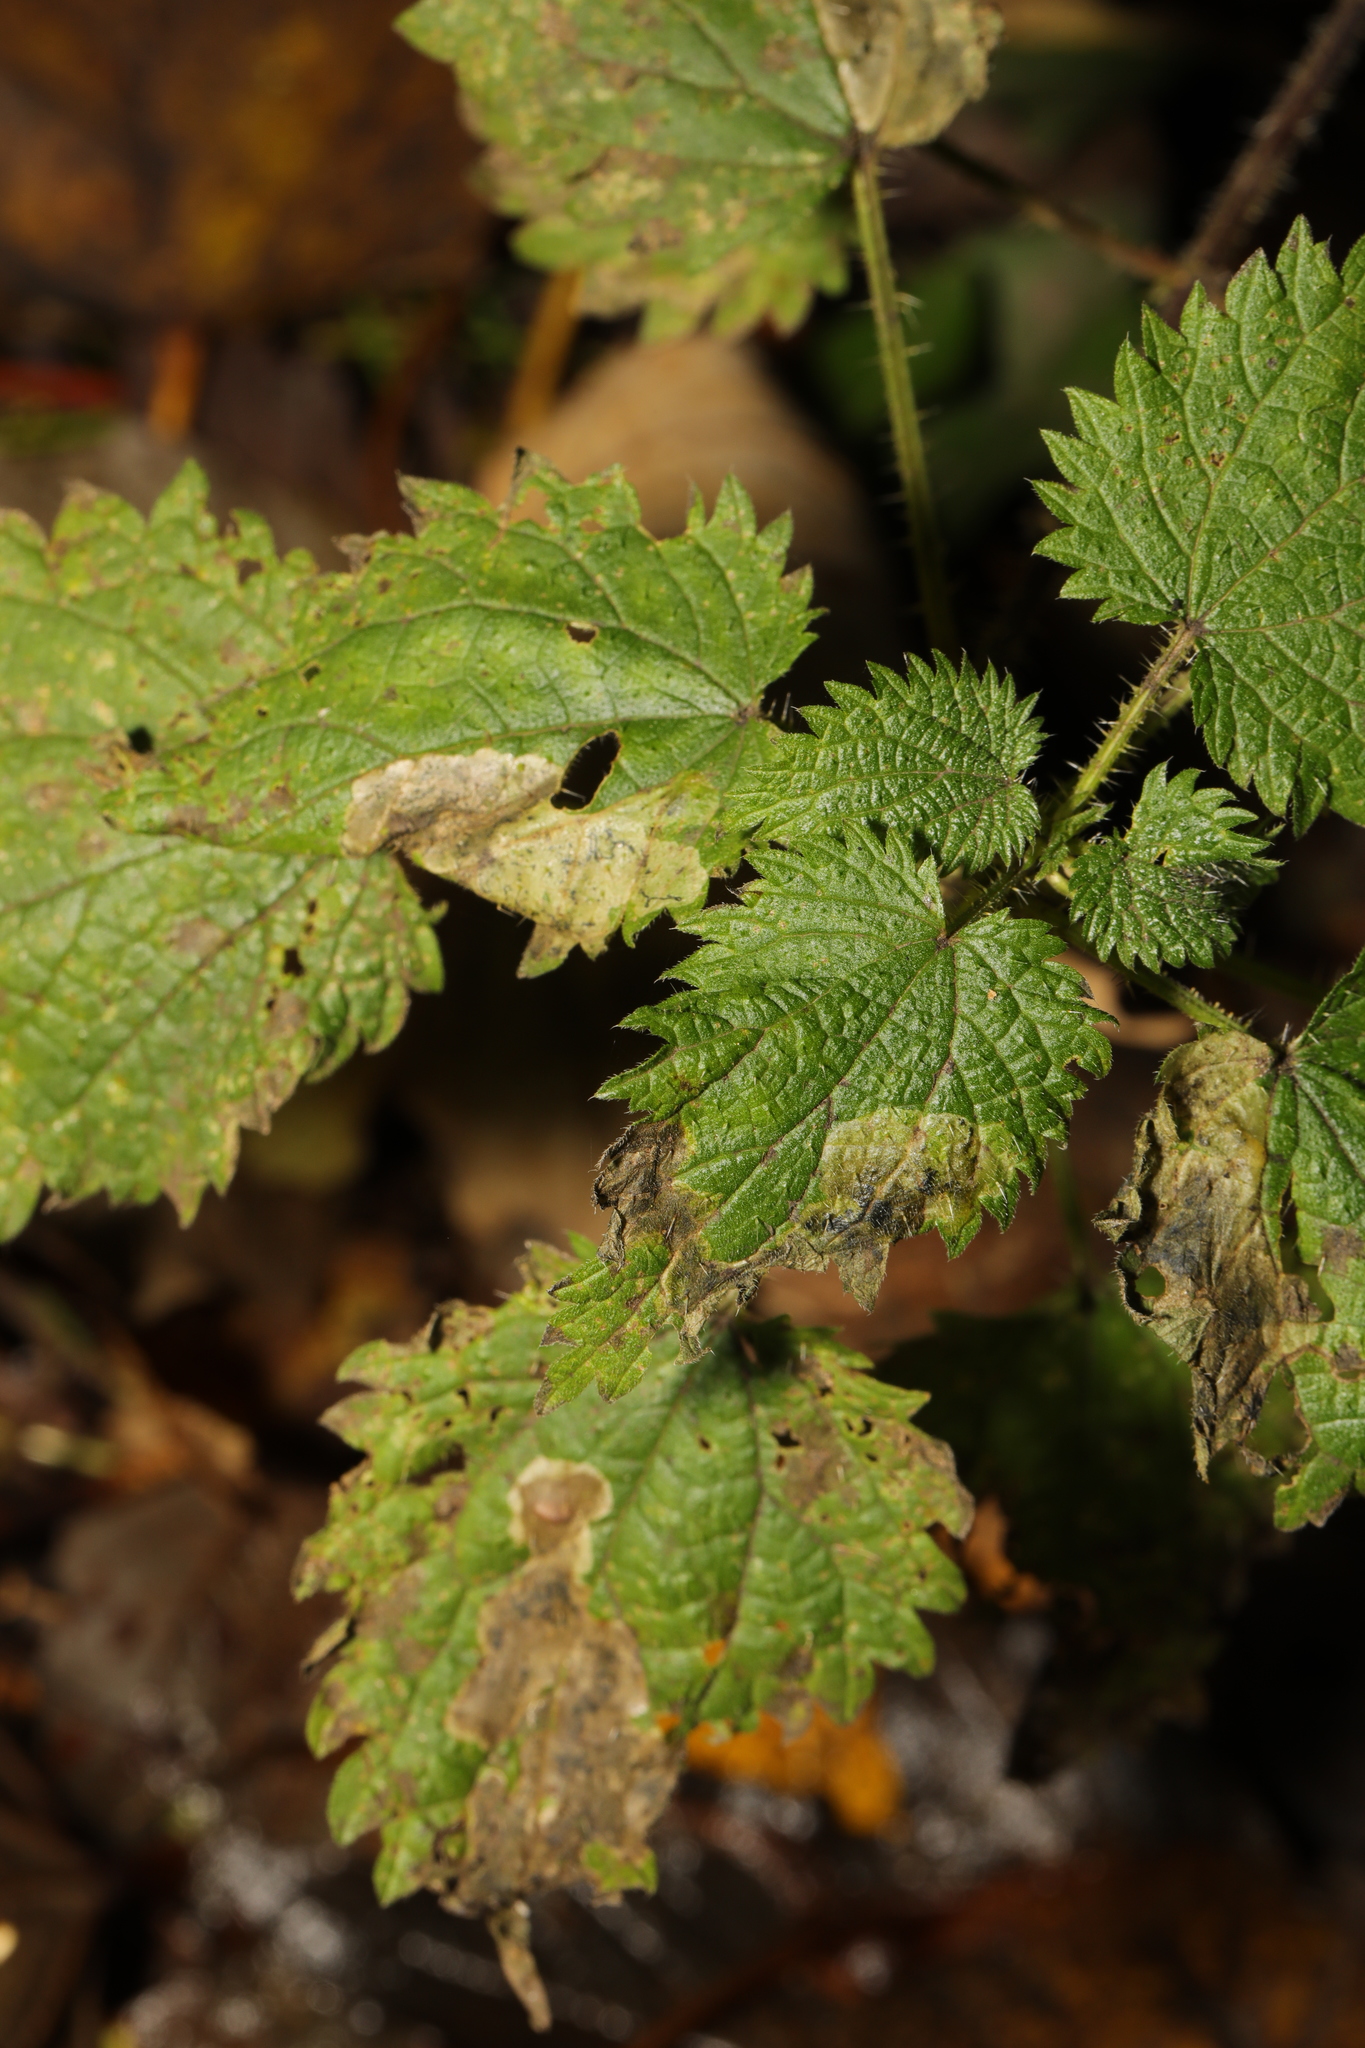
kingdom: Plantae
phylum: Tracheophyta
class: Magnoliopsida
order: Rosales
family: Urticaceae
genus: Urtica
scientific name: Urtica dioica
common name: Common nettle
